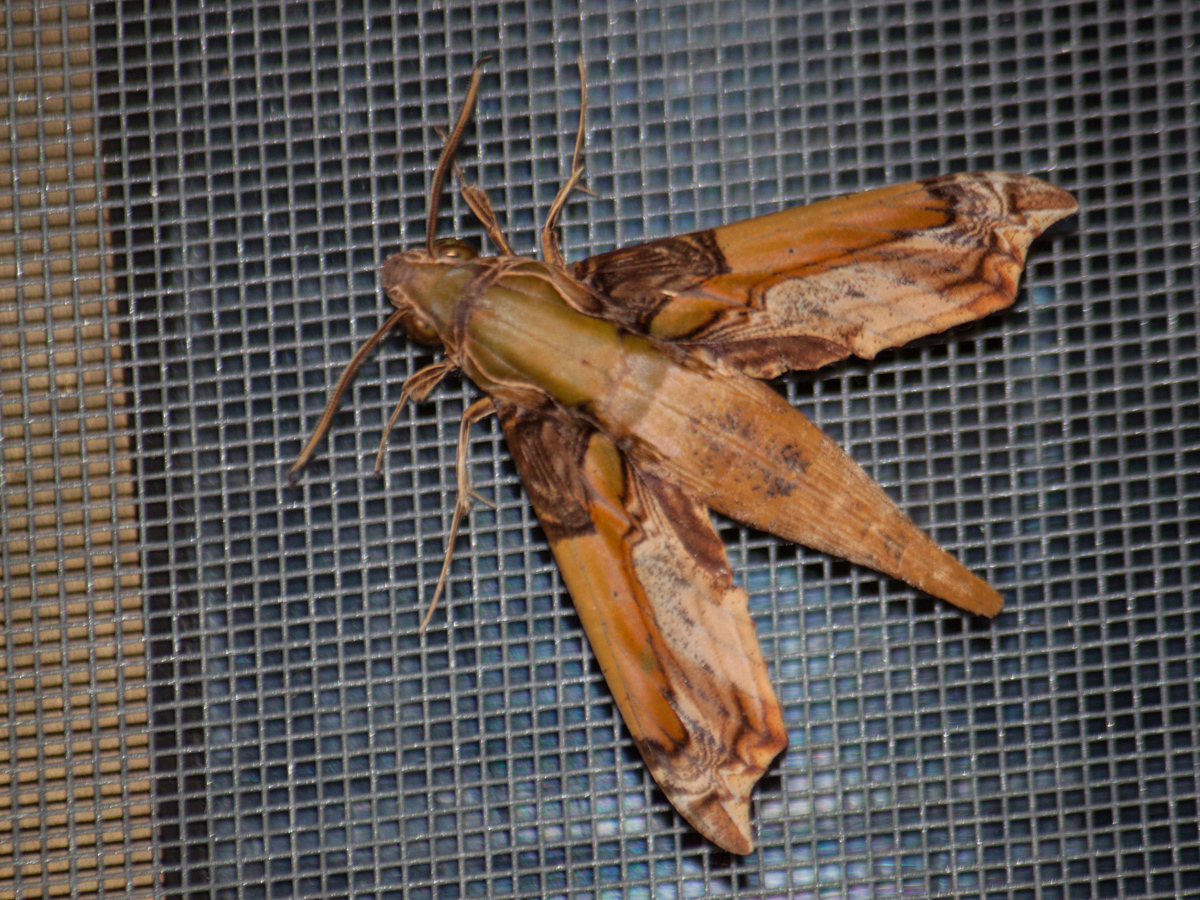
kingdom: Animalia
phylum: Arthropoda
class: Insecta
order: Lepidoptera
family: Sphingidae
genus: Eupanacra
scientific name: Eupanacra busiris
